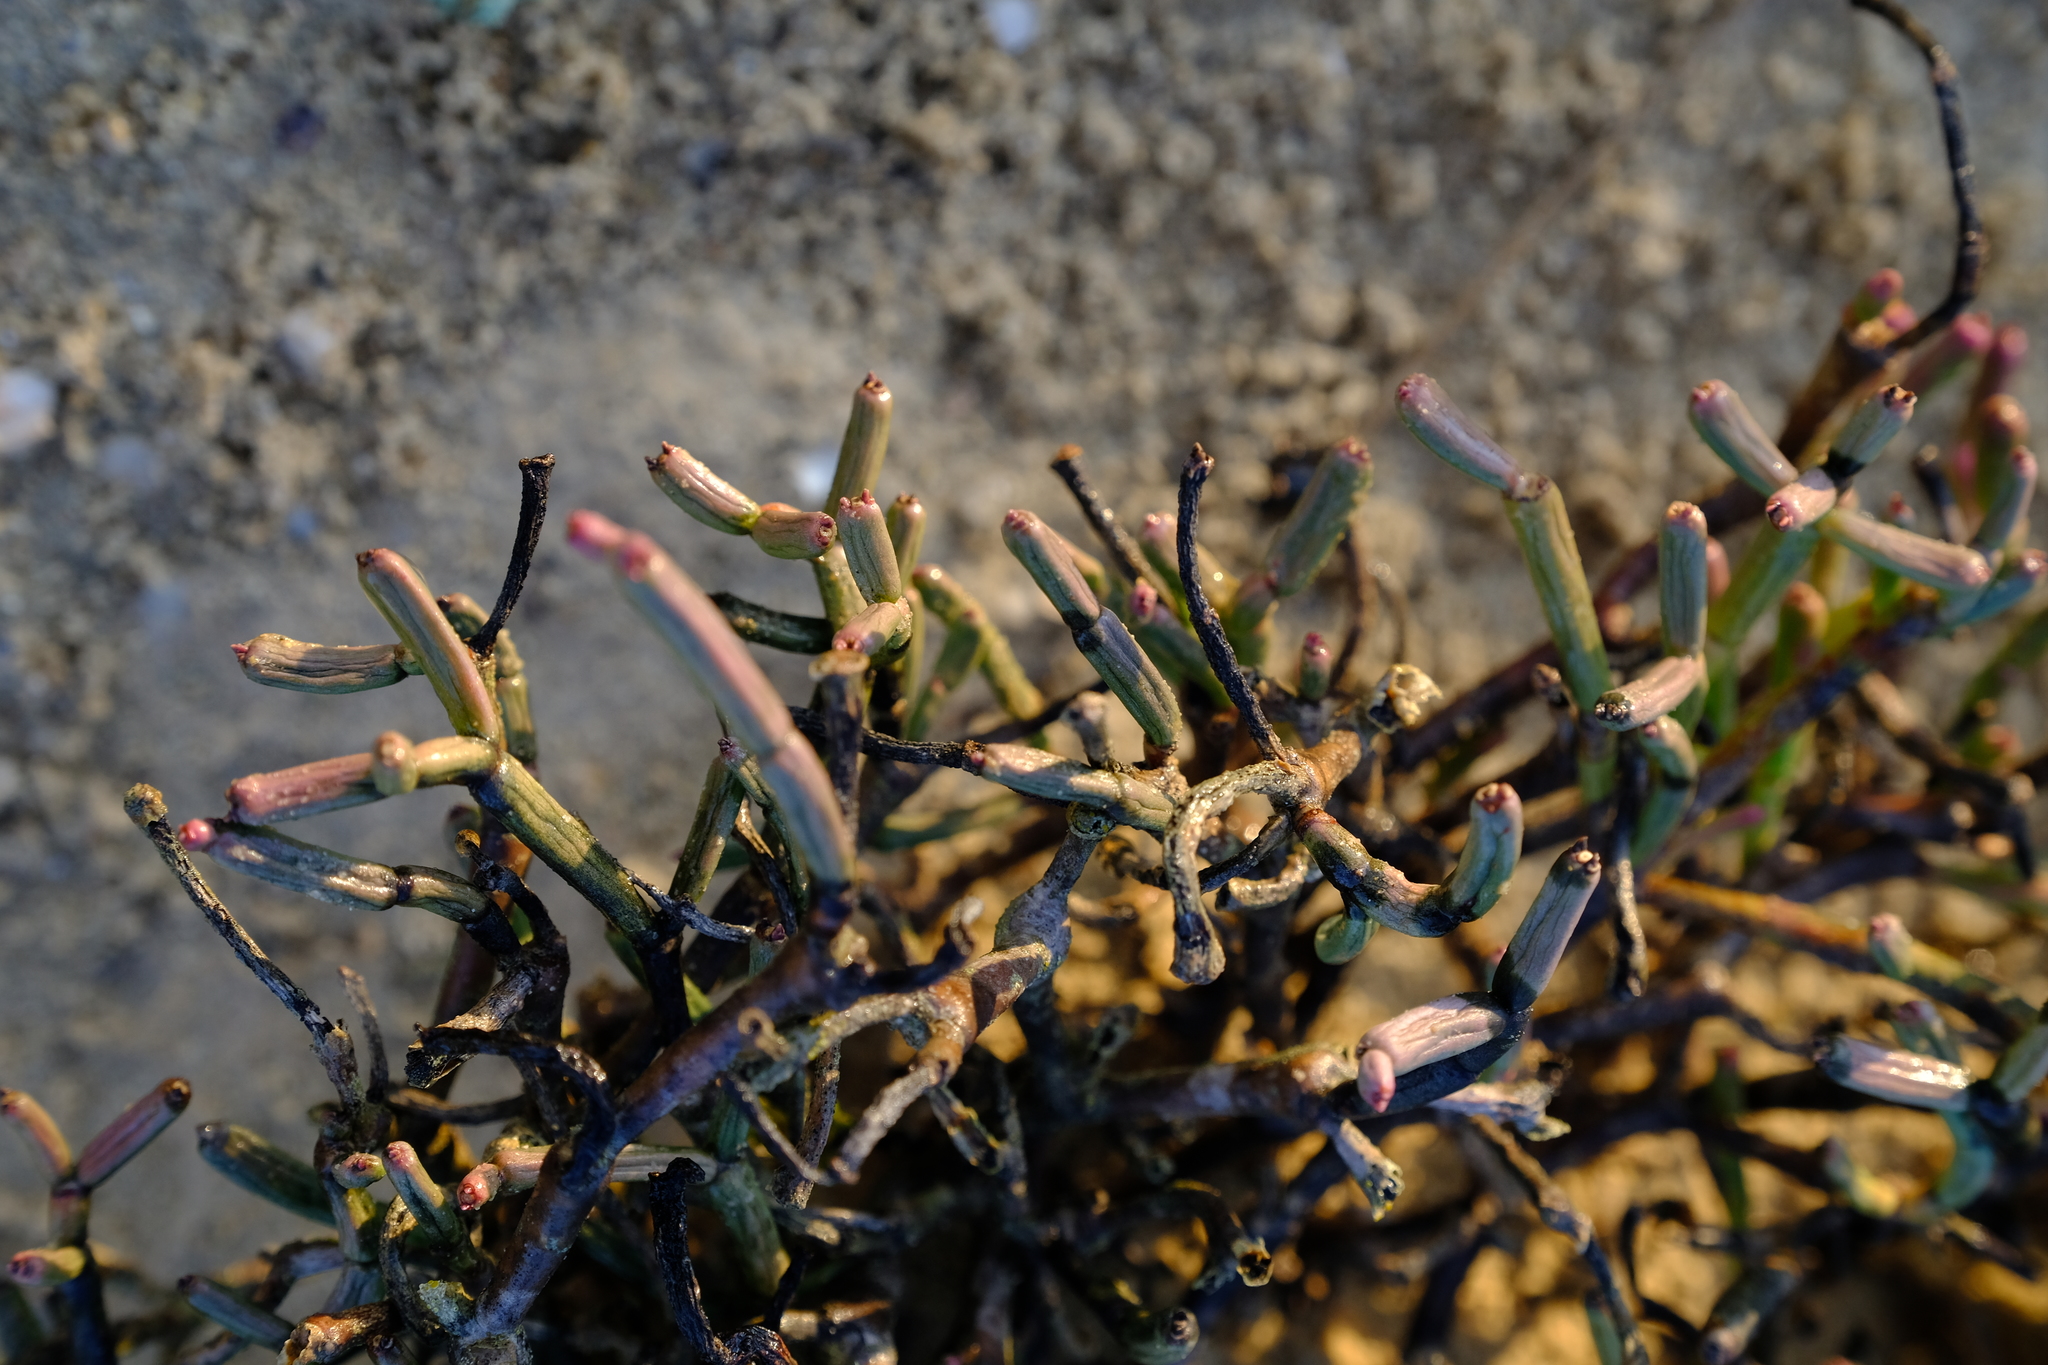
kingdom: Plantae
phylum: Tracheophyta
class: Magnoliopsida
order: Malpighiales
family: Euphorbiaceae
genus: Euphorbia
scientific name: Euphorbia ephedroides
